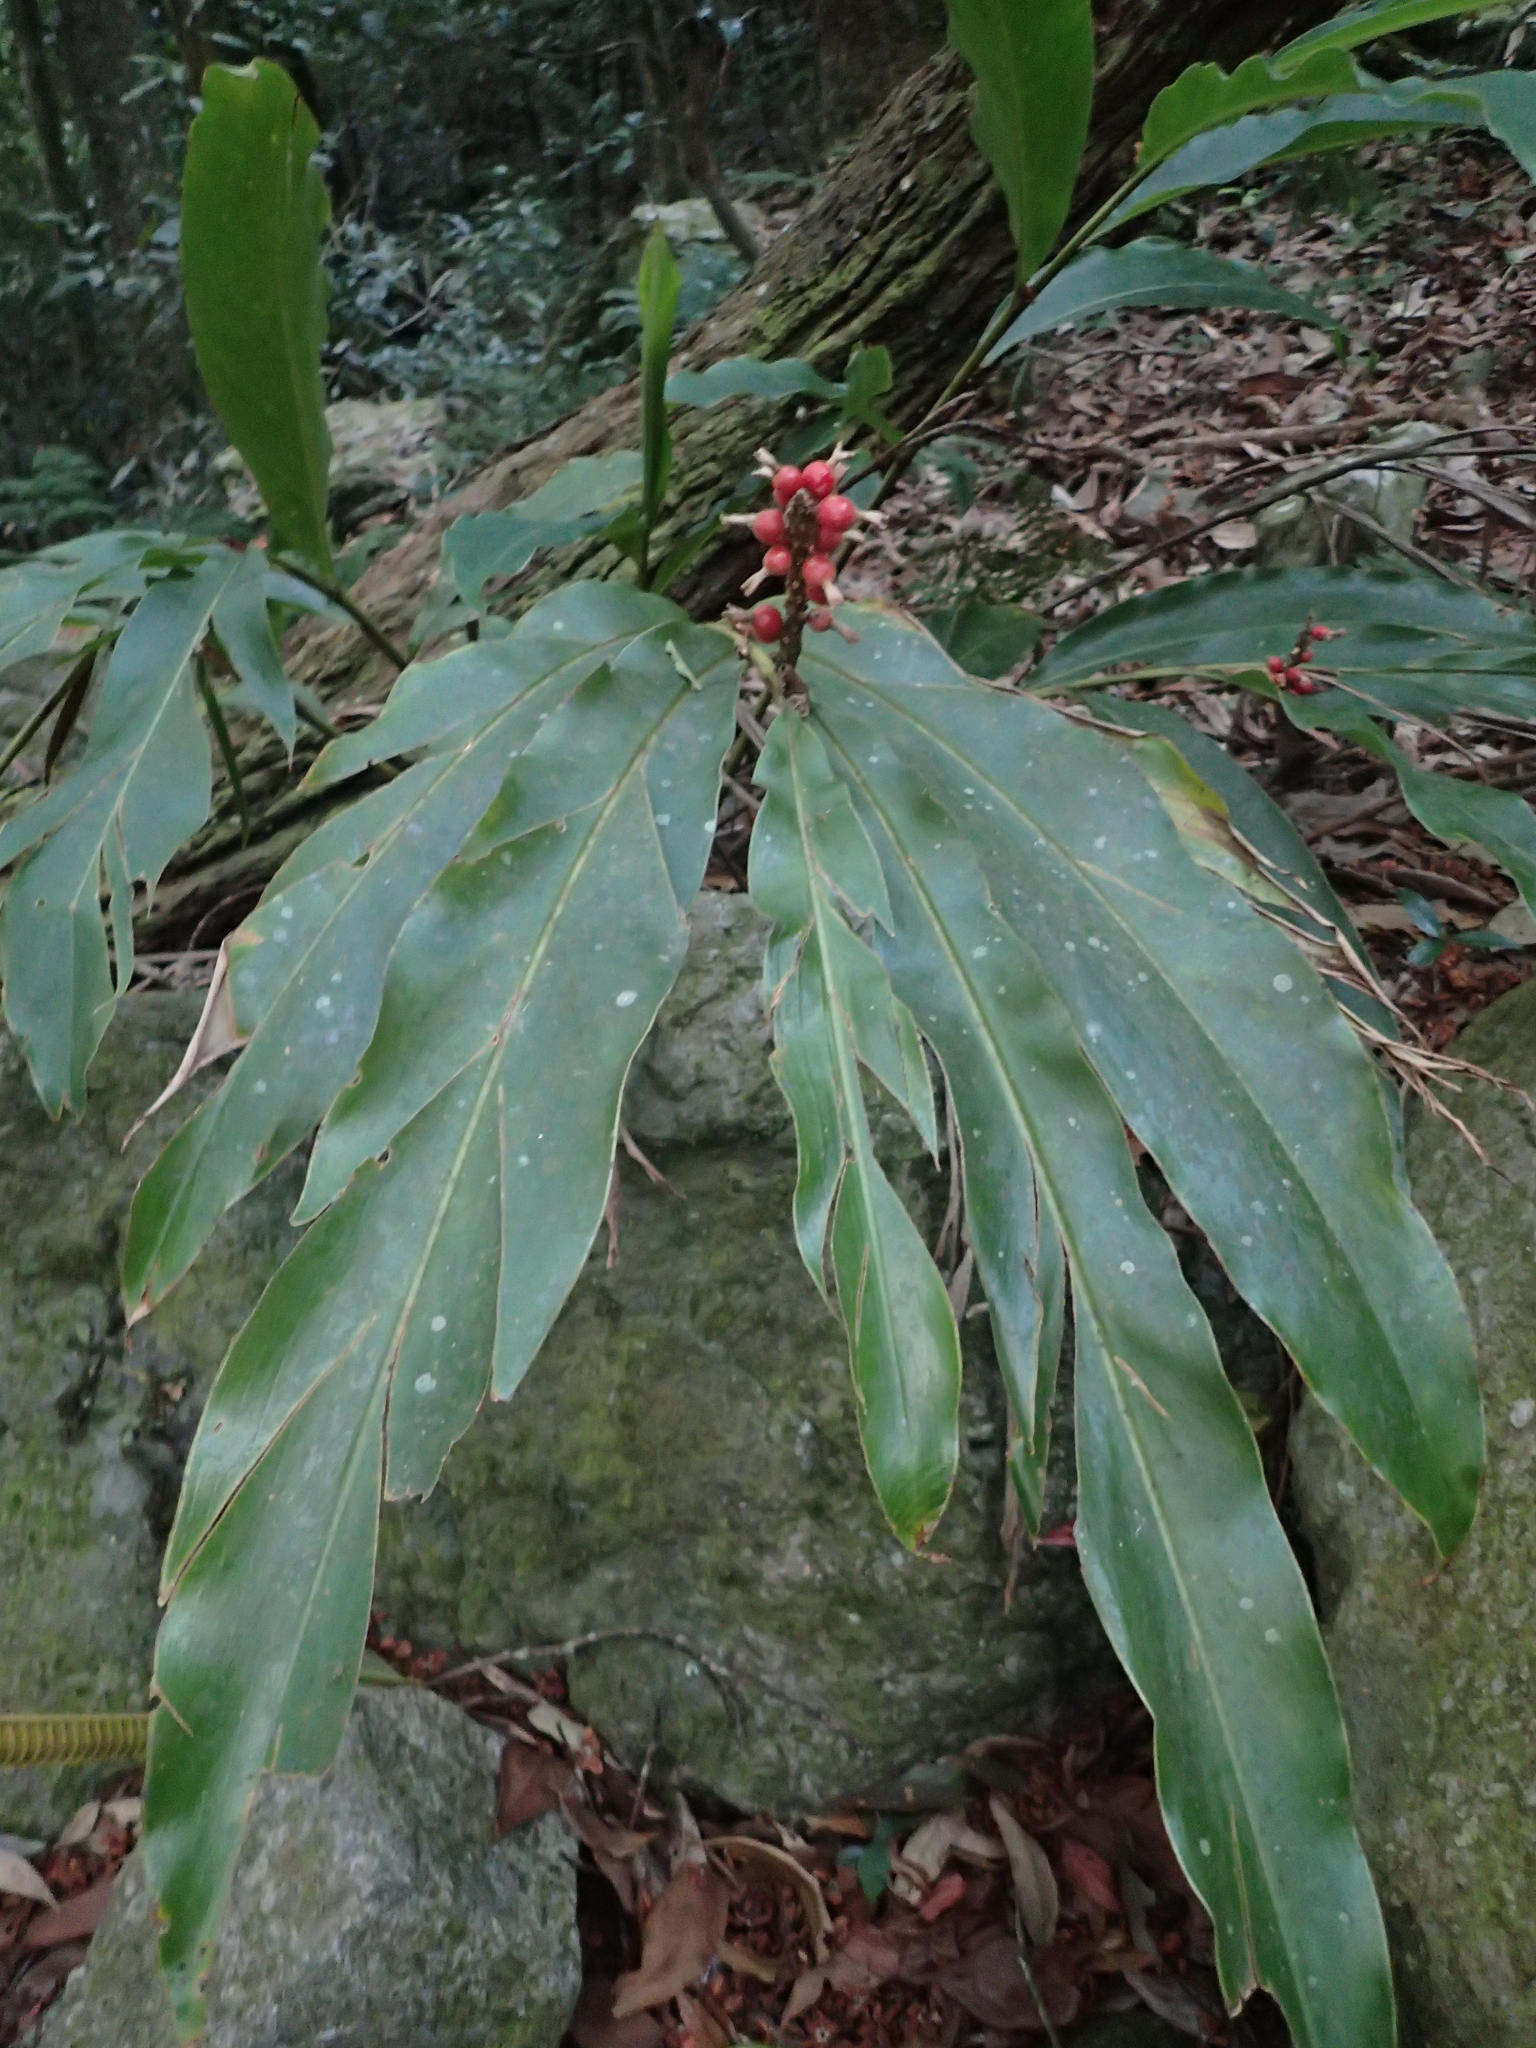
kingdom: Plantae
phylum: Tracheophyta
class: Liliopsida
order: Zingiberales
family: Zingiberaceae
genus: Alpinia
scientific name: Alpinia shimadae
